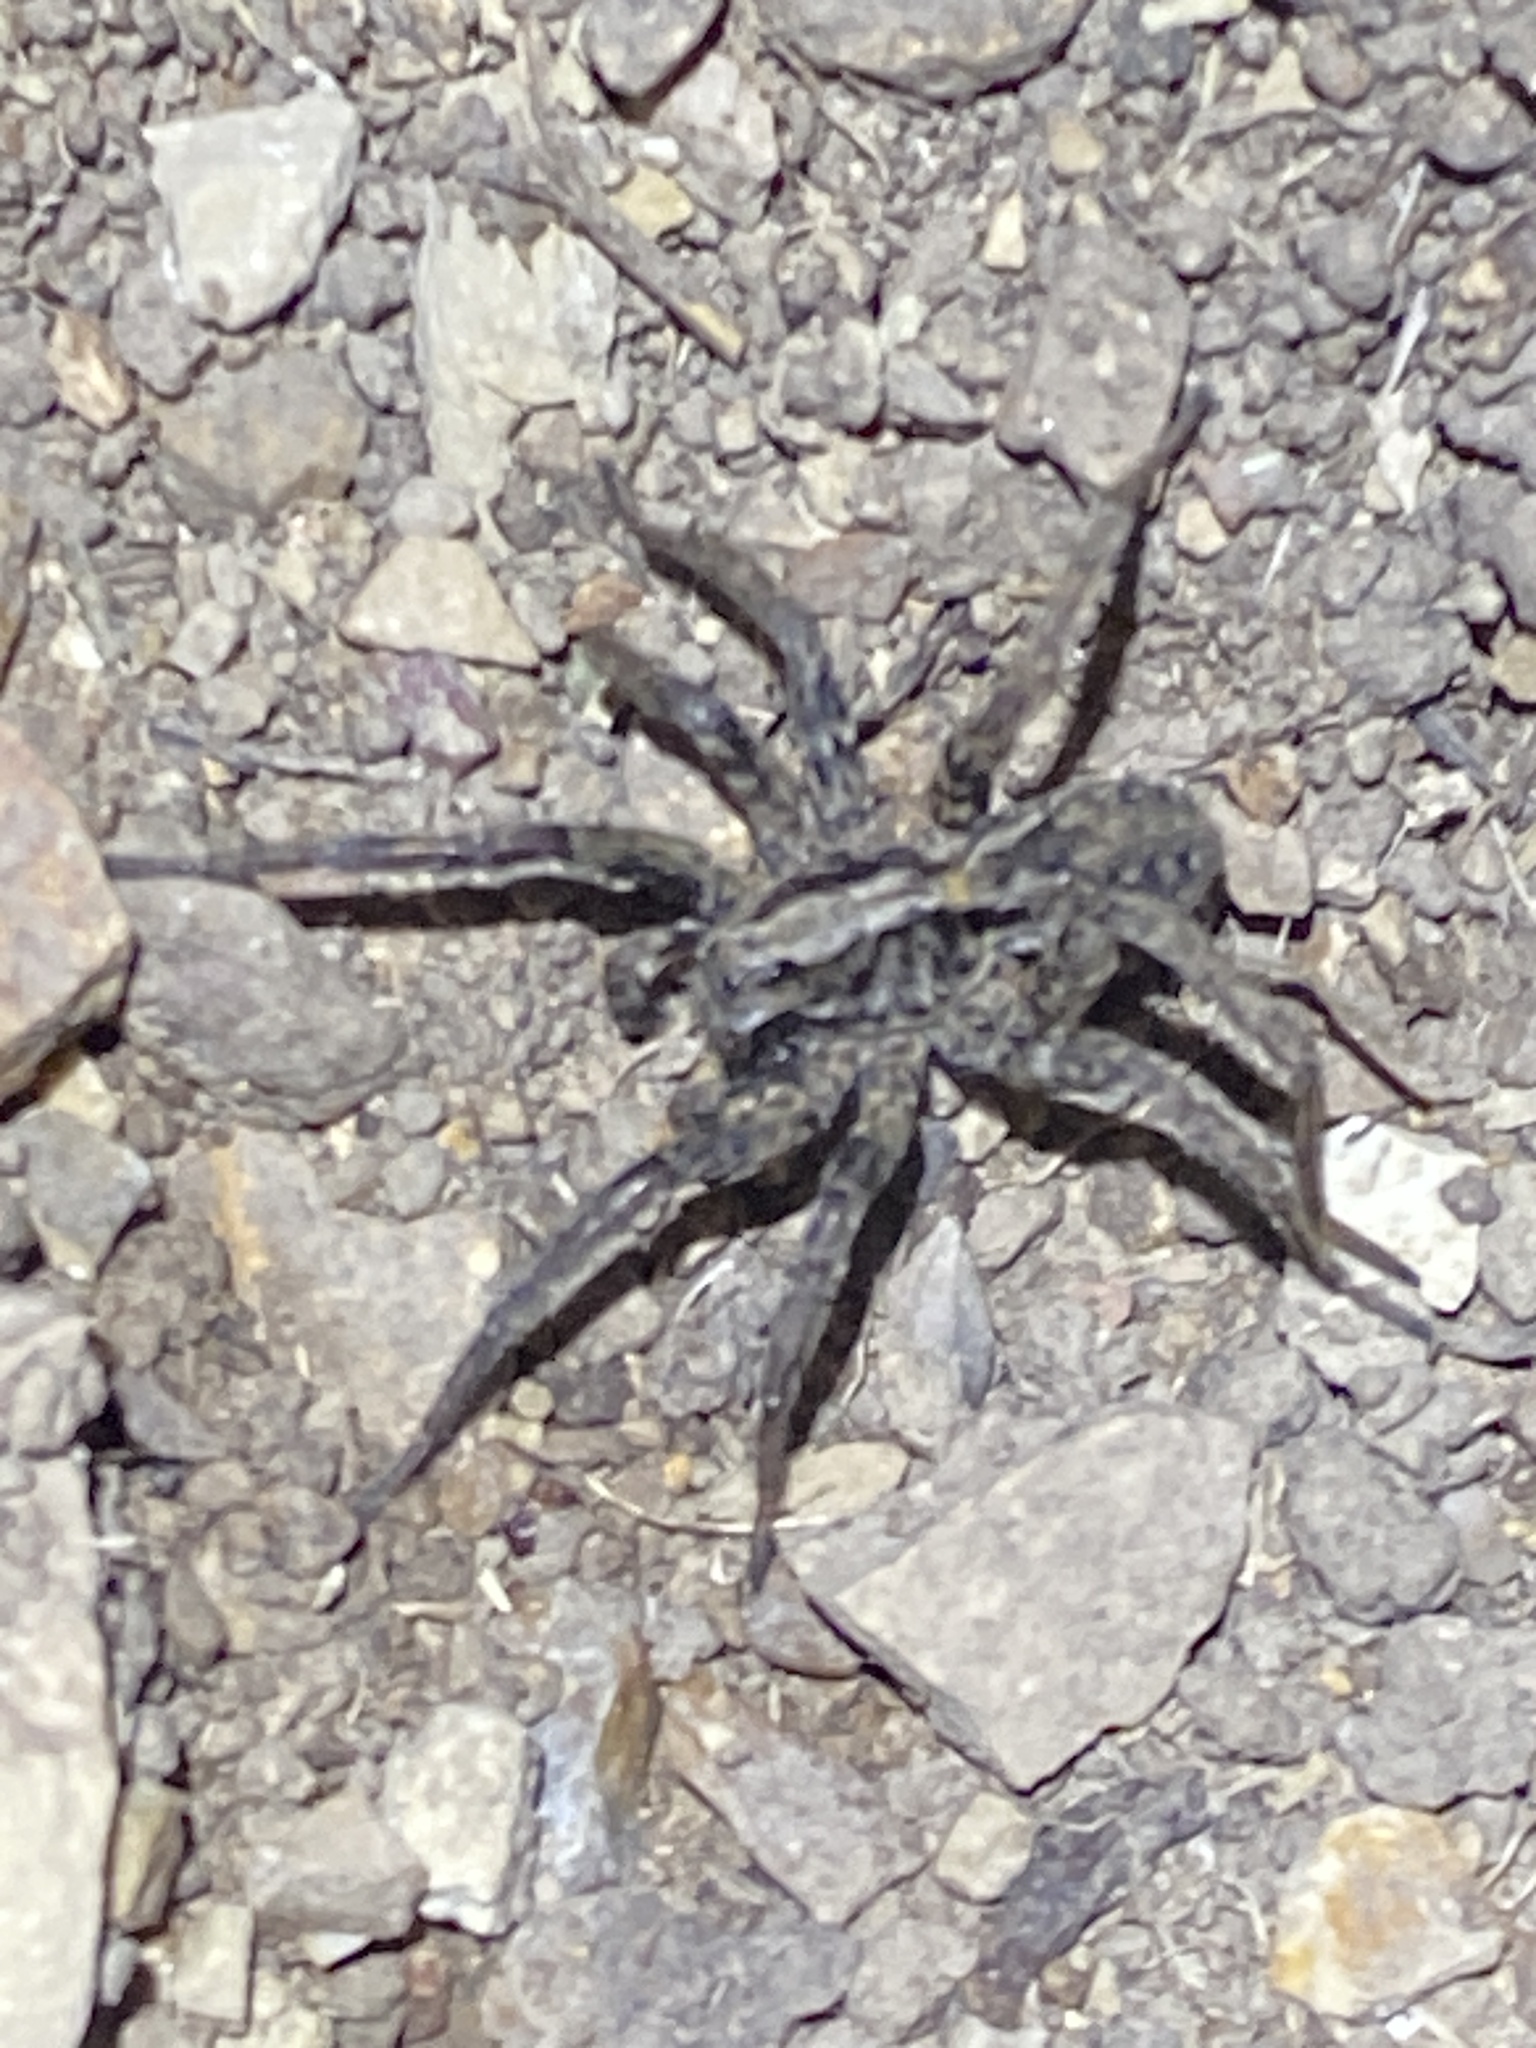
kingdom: Animalia
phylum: Arthropoda
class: Arachnida
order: Araneae
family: Lycosidae
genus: Alopecosa
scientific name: Alopecosa kochi
